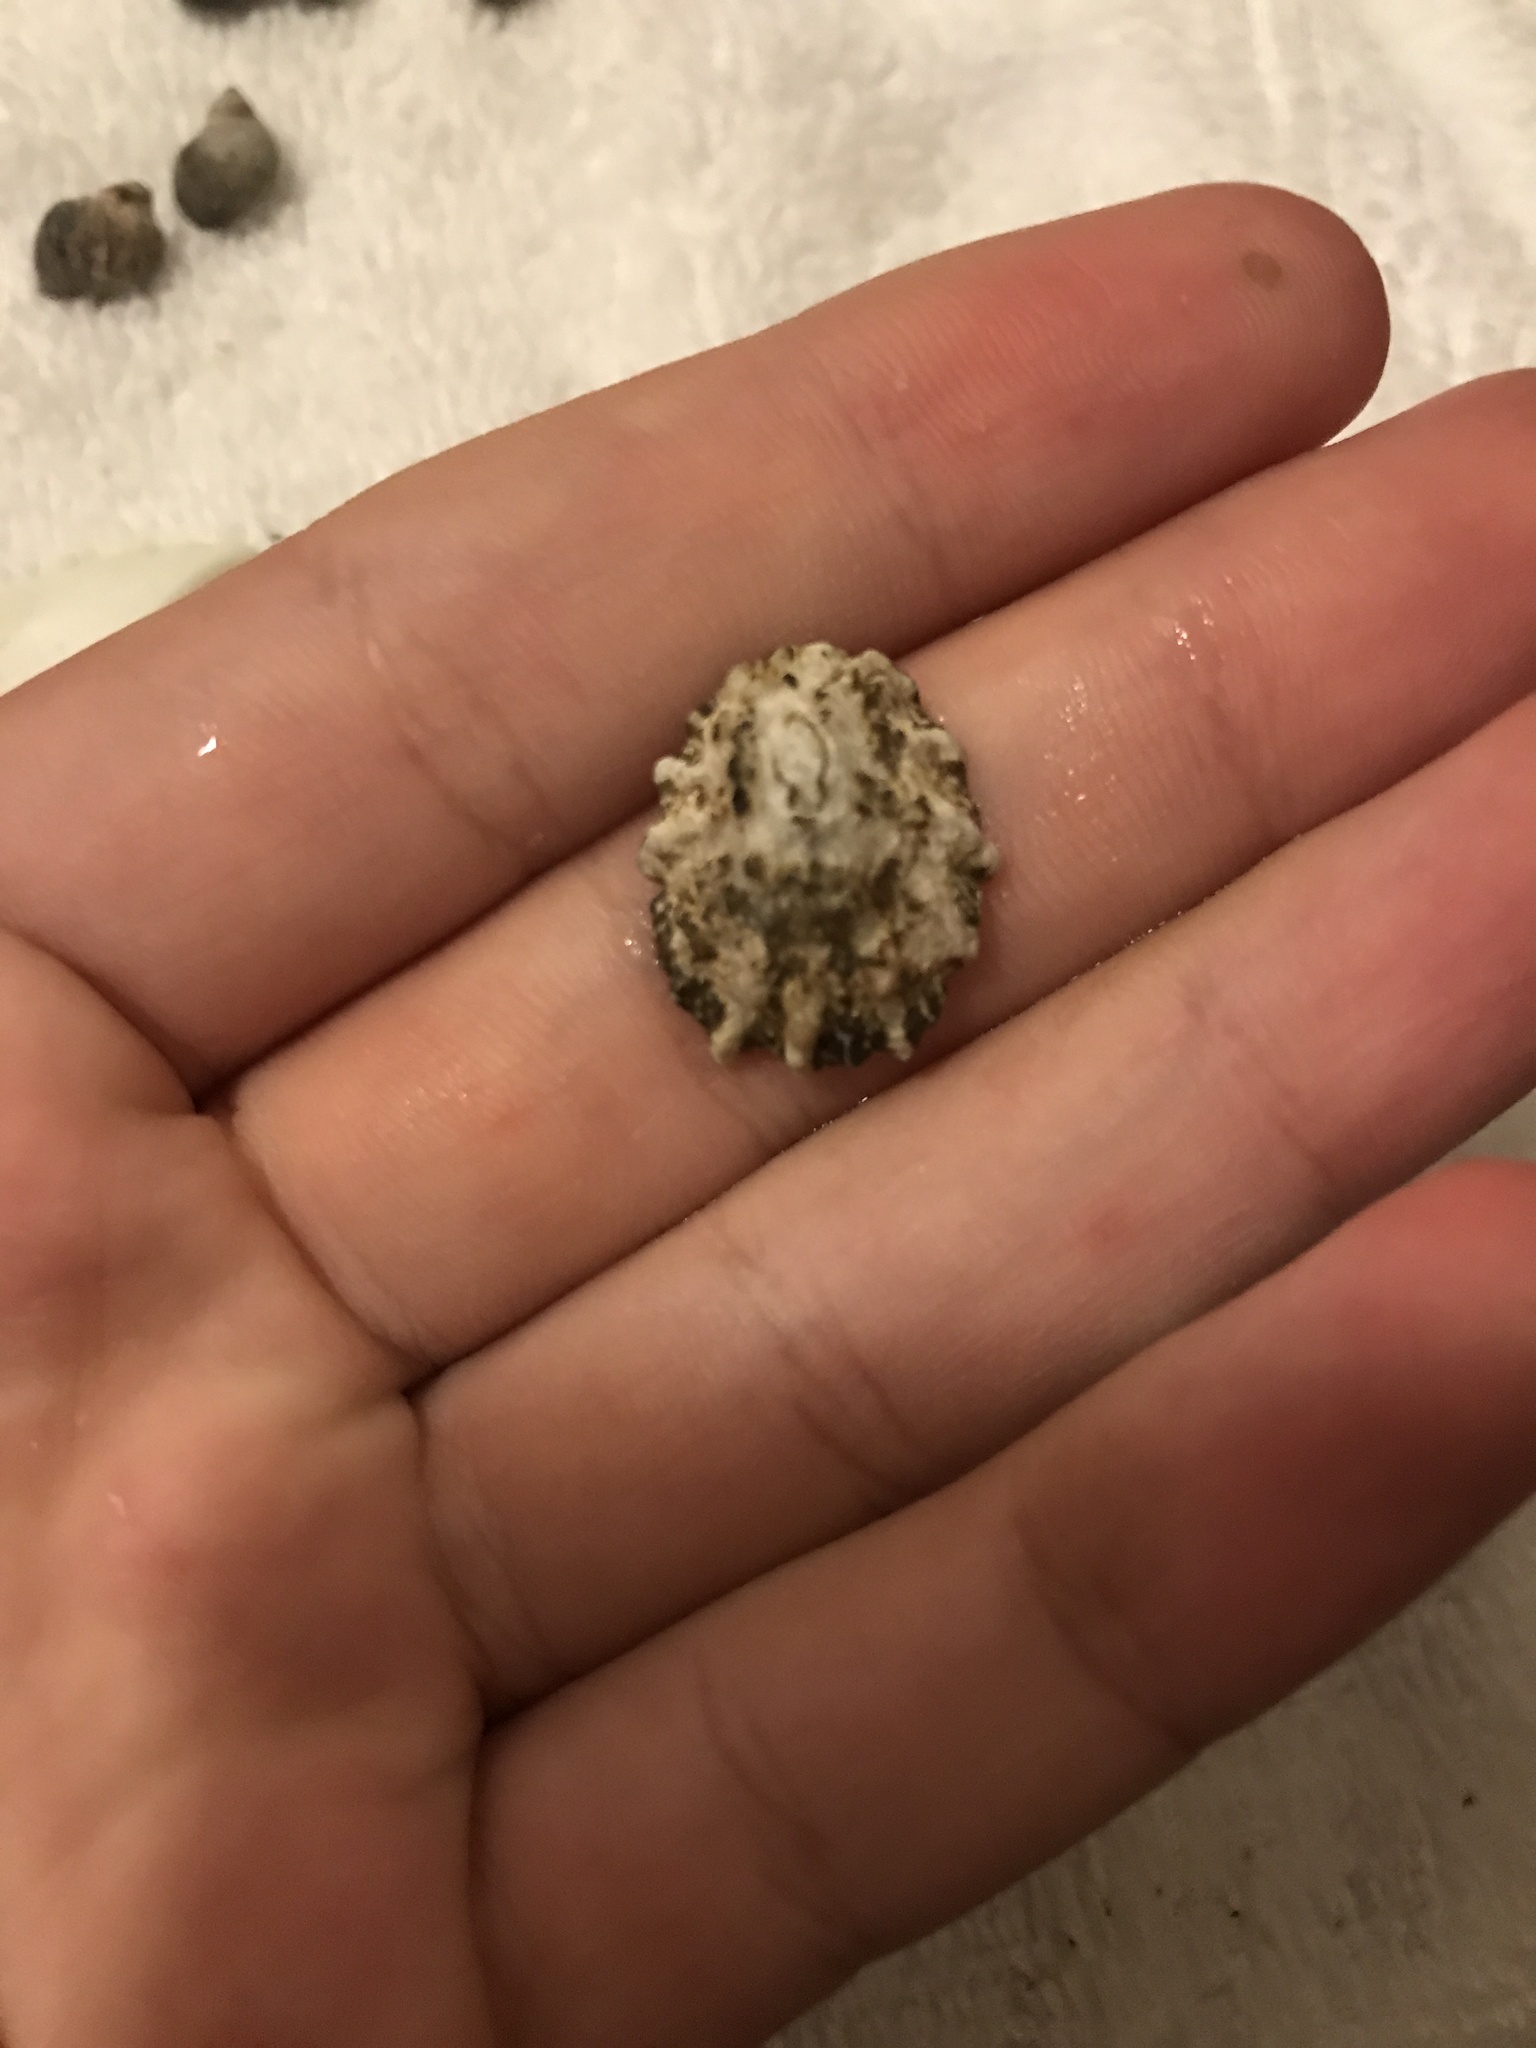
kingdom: Animalia
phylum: Mollusca
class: Gastropoda
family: Lottiidae
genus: Lottia
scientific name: Lottia scabra
